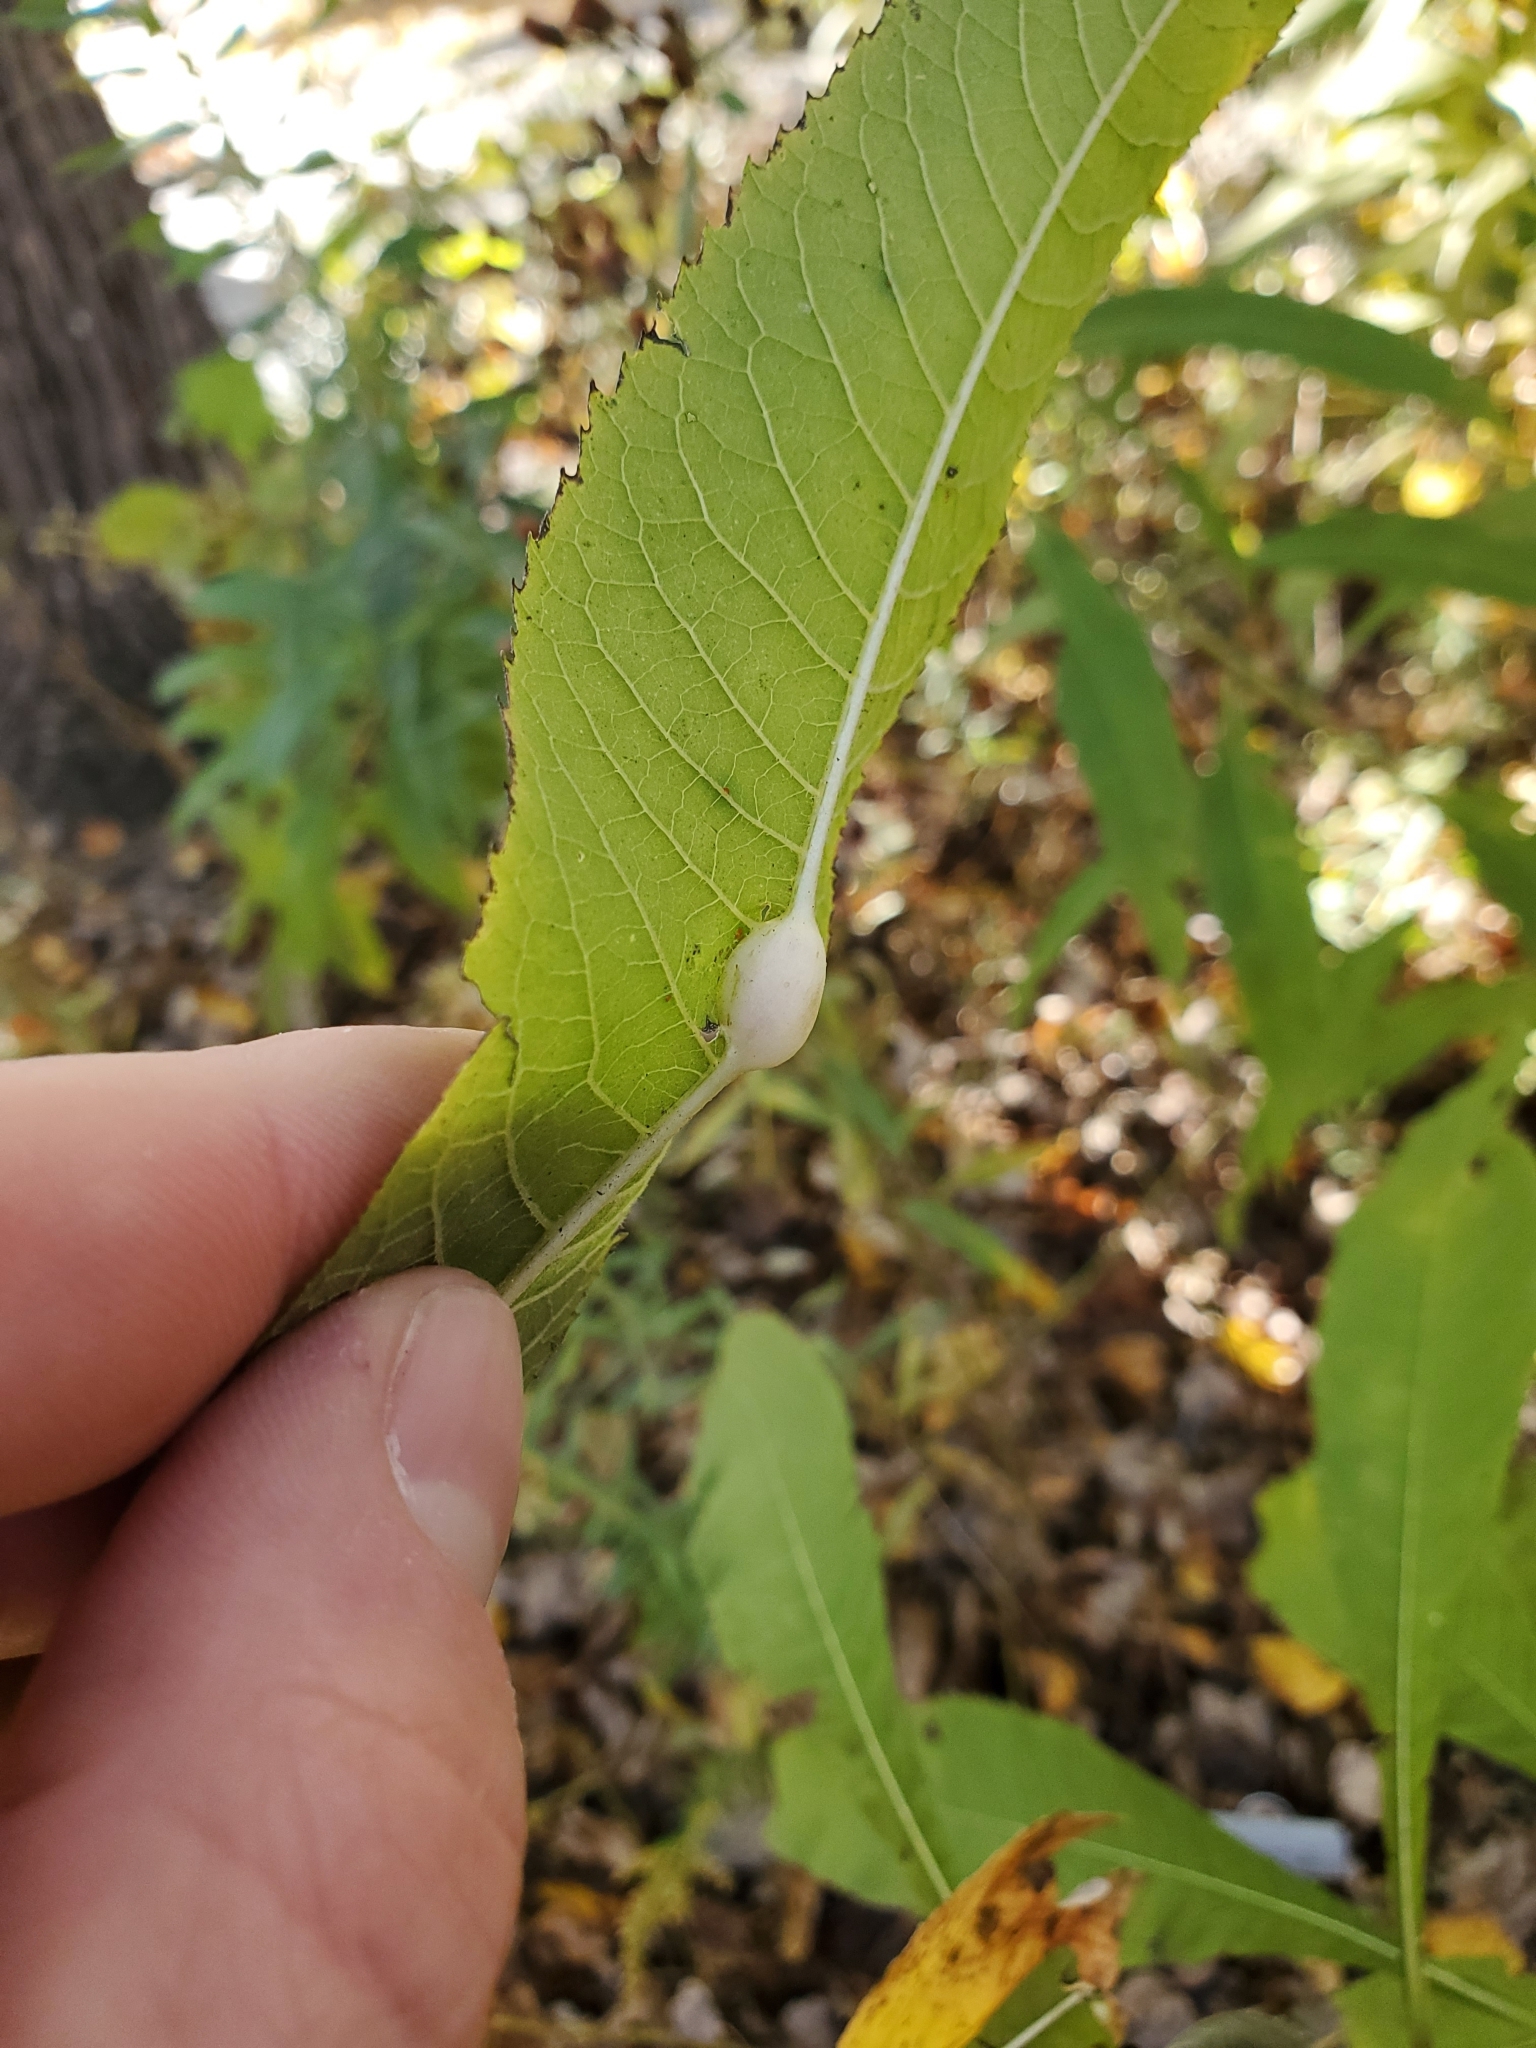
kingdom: Animalia
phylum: Arthropoda
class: Insecta
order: Diptera
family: Cecidomyiidae
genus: Neolasioptera
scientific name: Neolasioptera vernoniae
